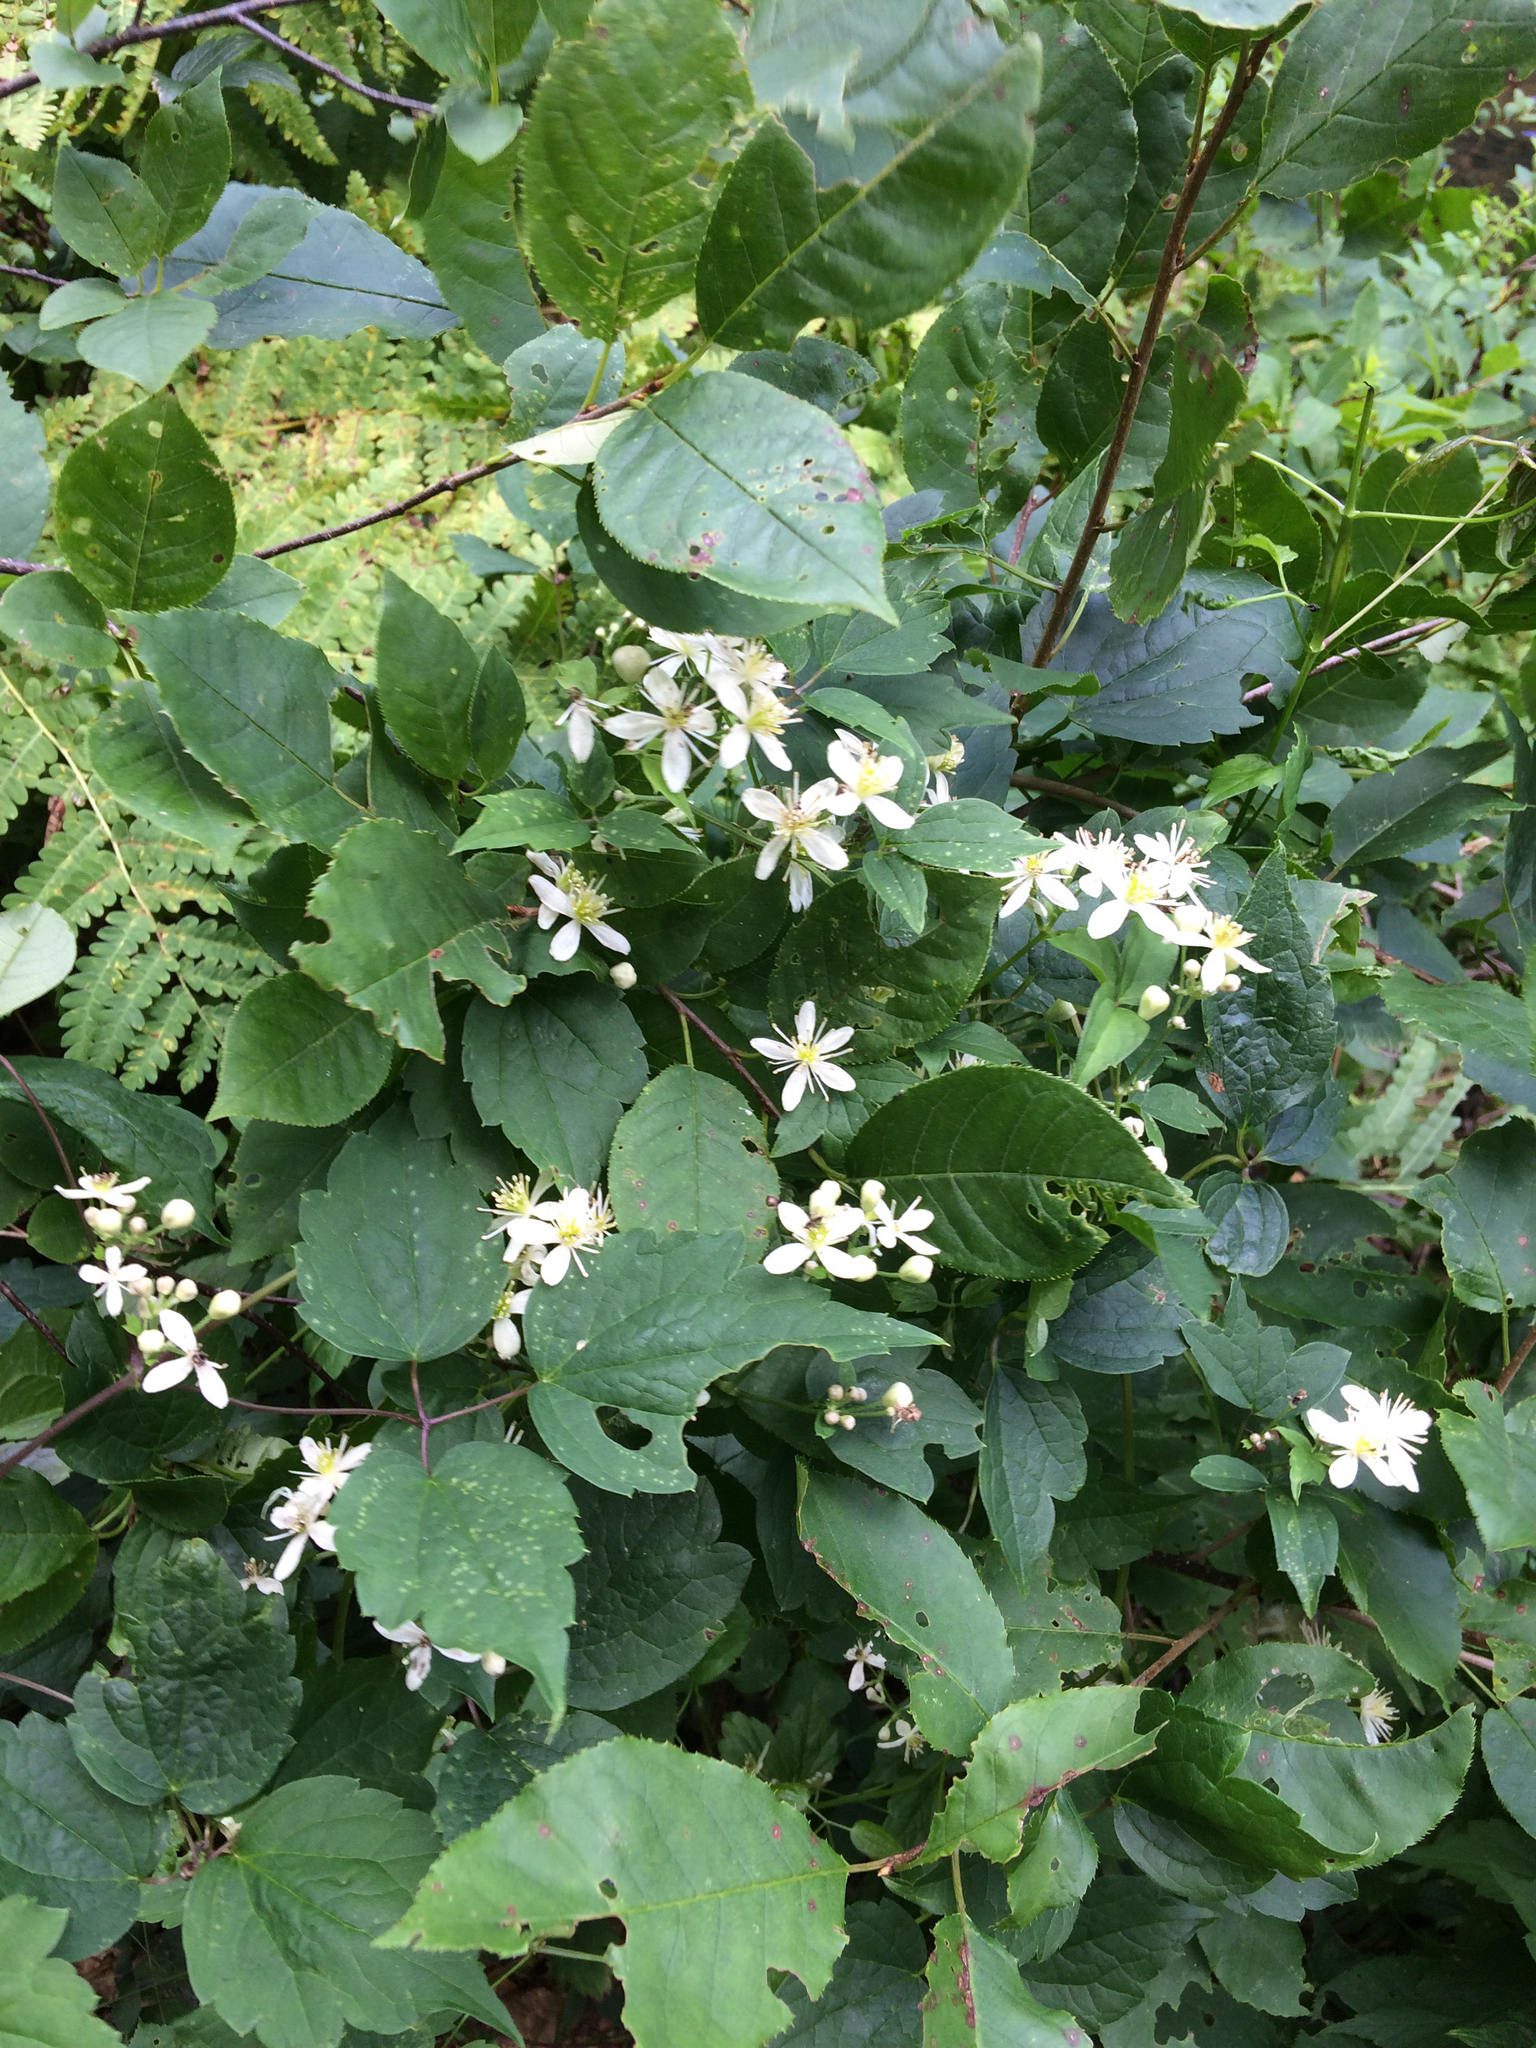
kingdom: Plantae
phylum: Tracheophyta
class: Magnoliopsida
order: Ranunculales
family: Ranunculaceae
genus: Clematis
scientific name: Clematis virginiana
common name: Virgin's-bower
